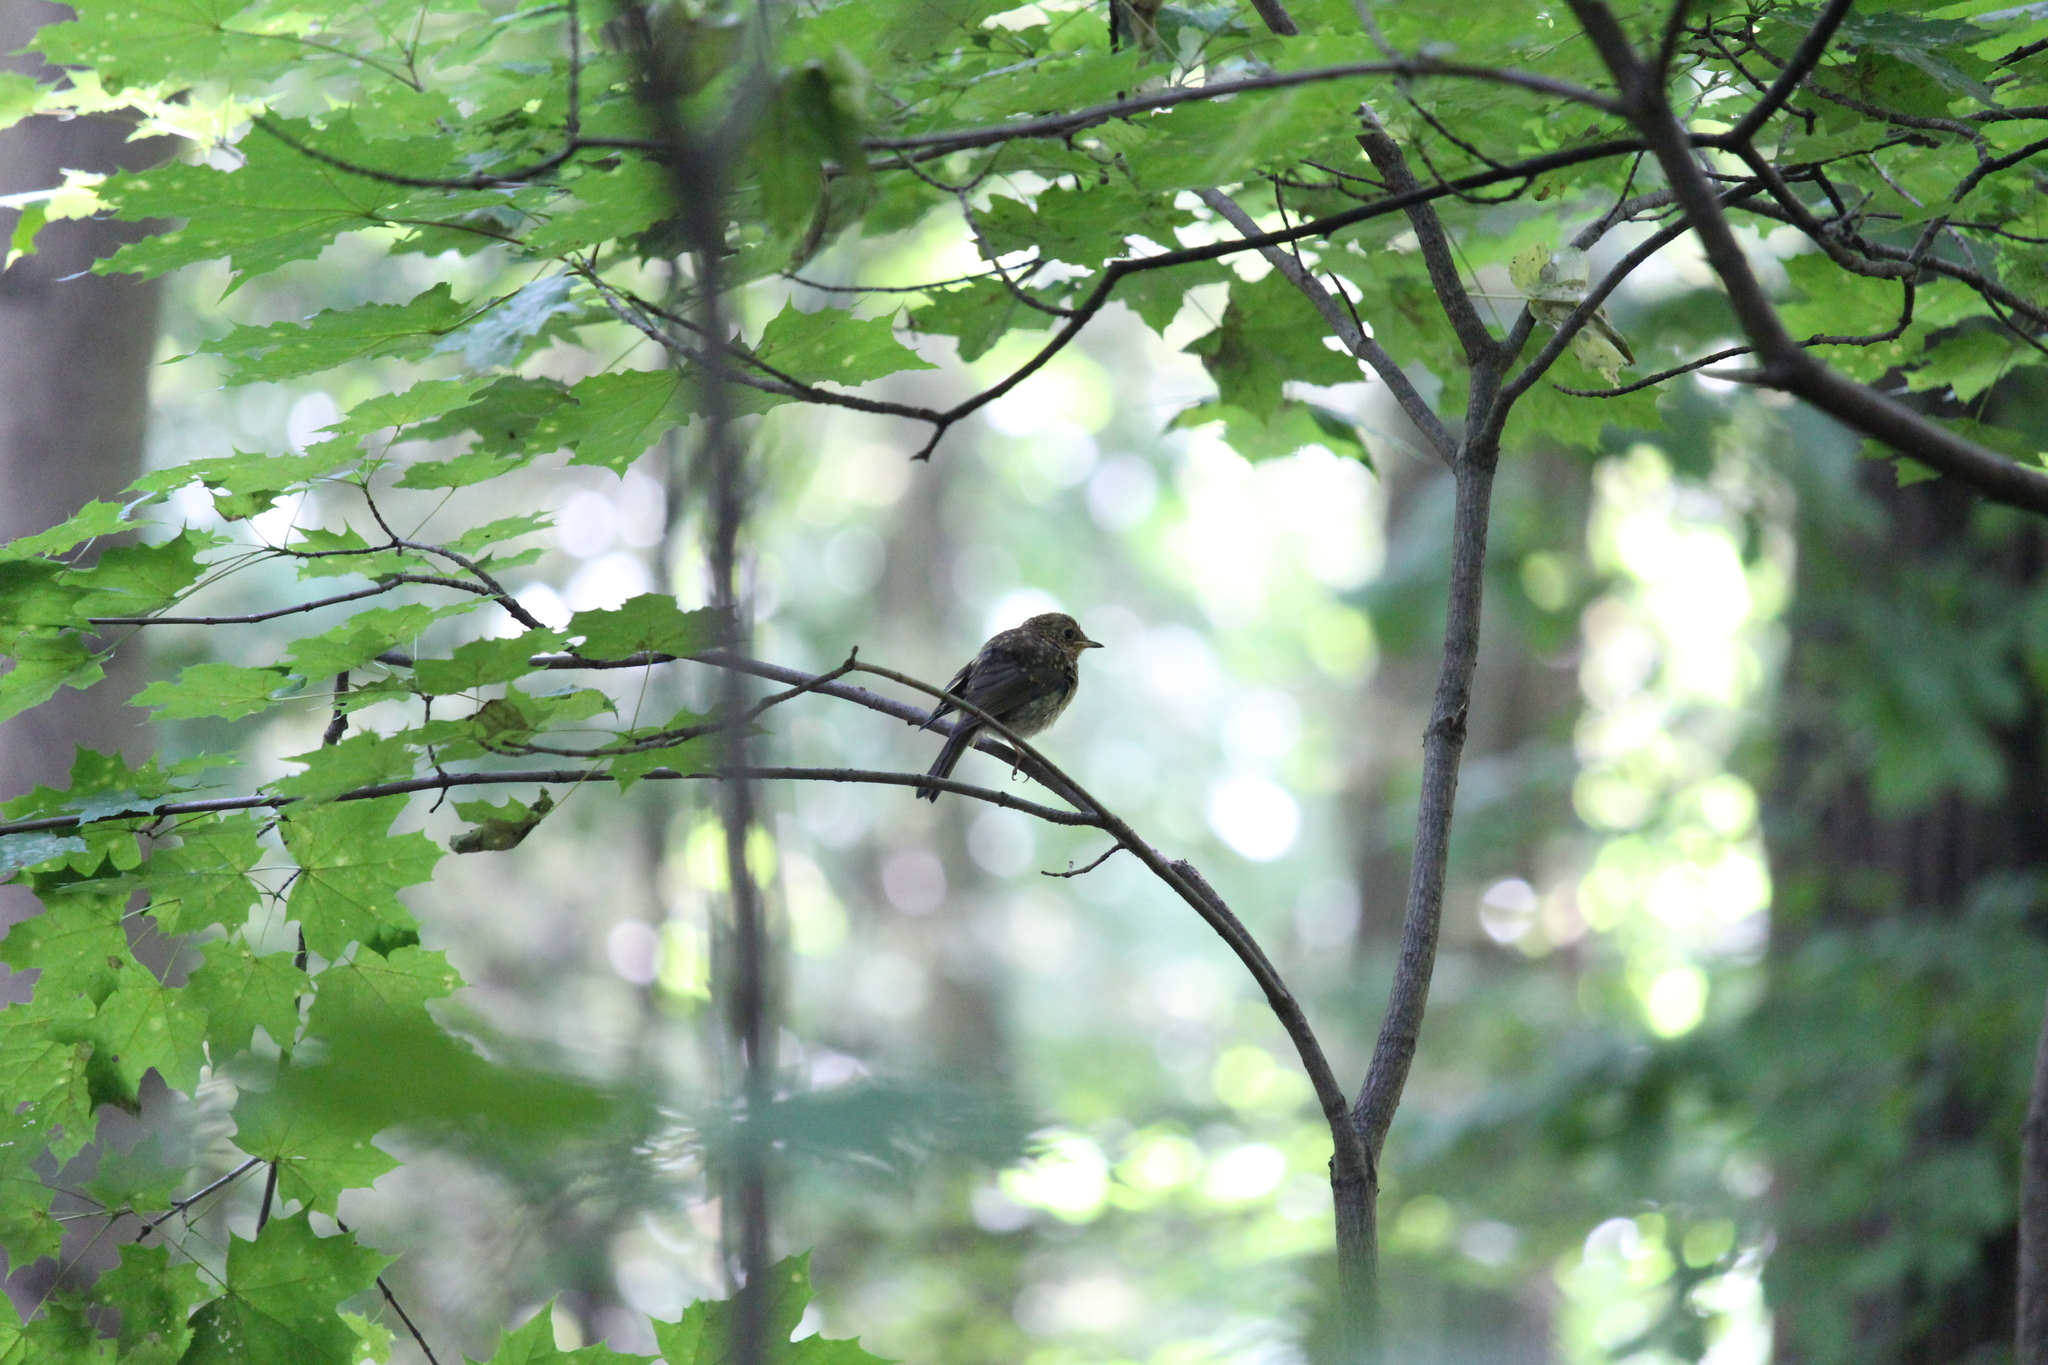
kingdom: Animalia
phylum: Chordata
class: Aves
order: Passeriformes
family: Muscicapidae
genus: Erithacus
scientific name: Erithacus rubecula
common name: European robin
